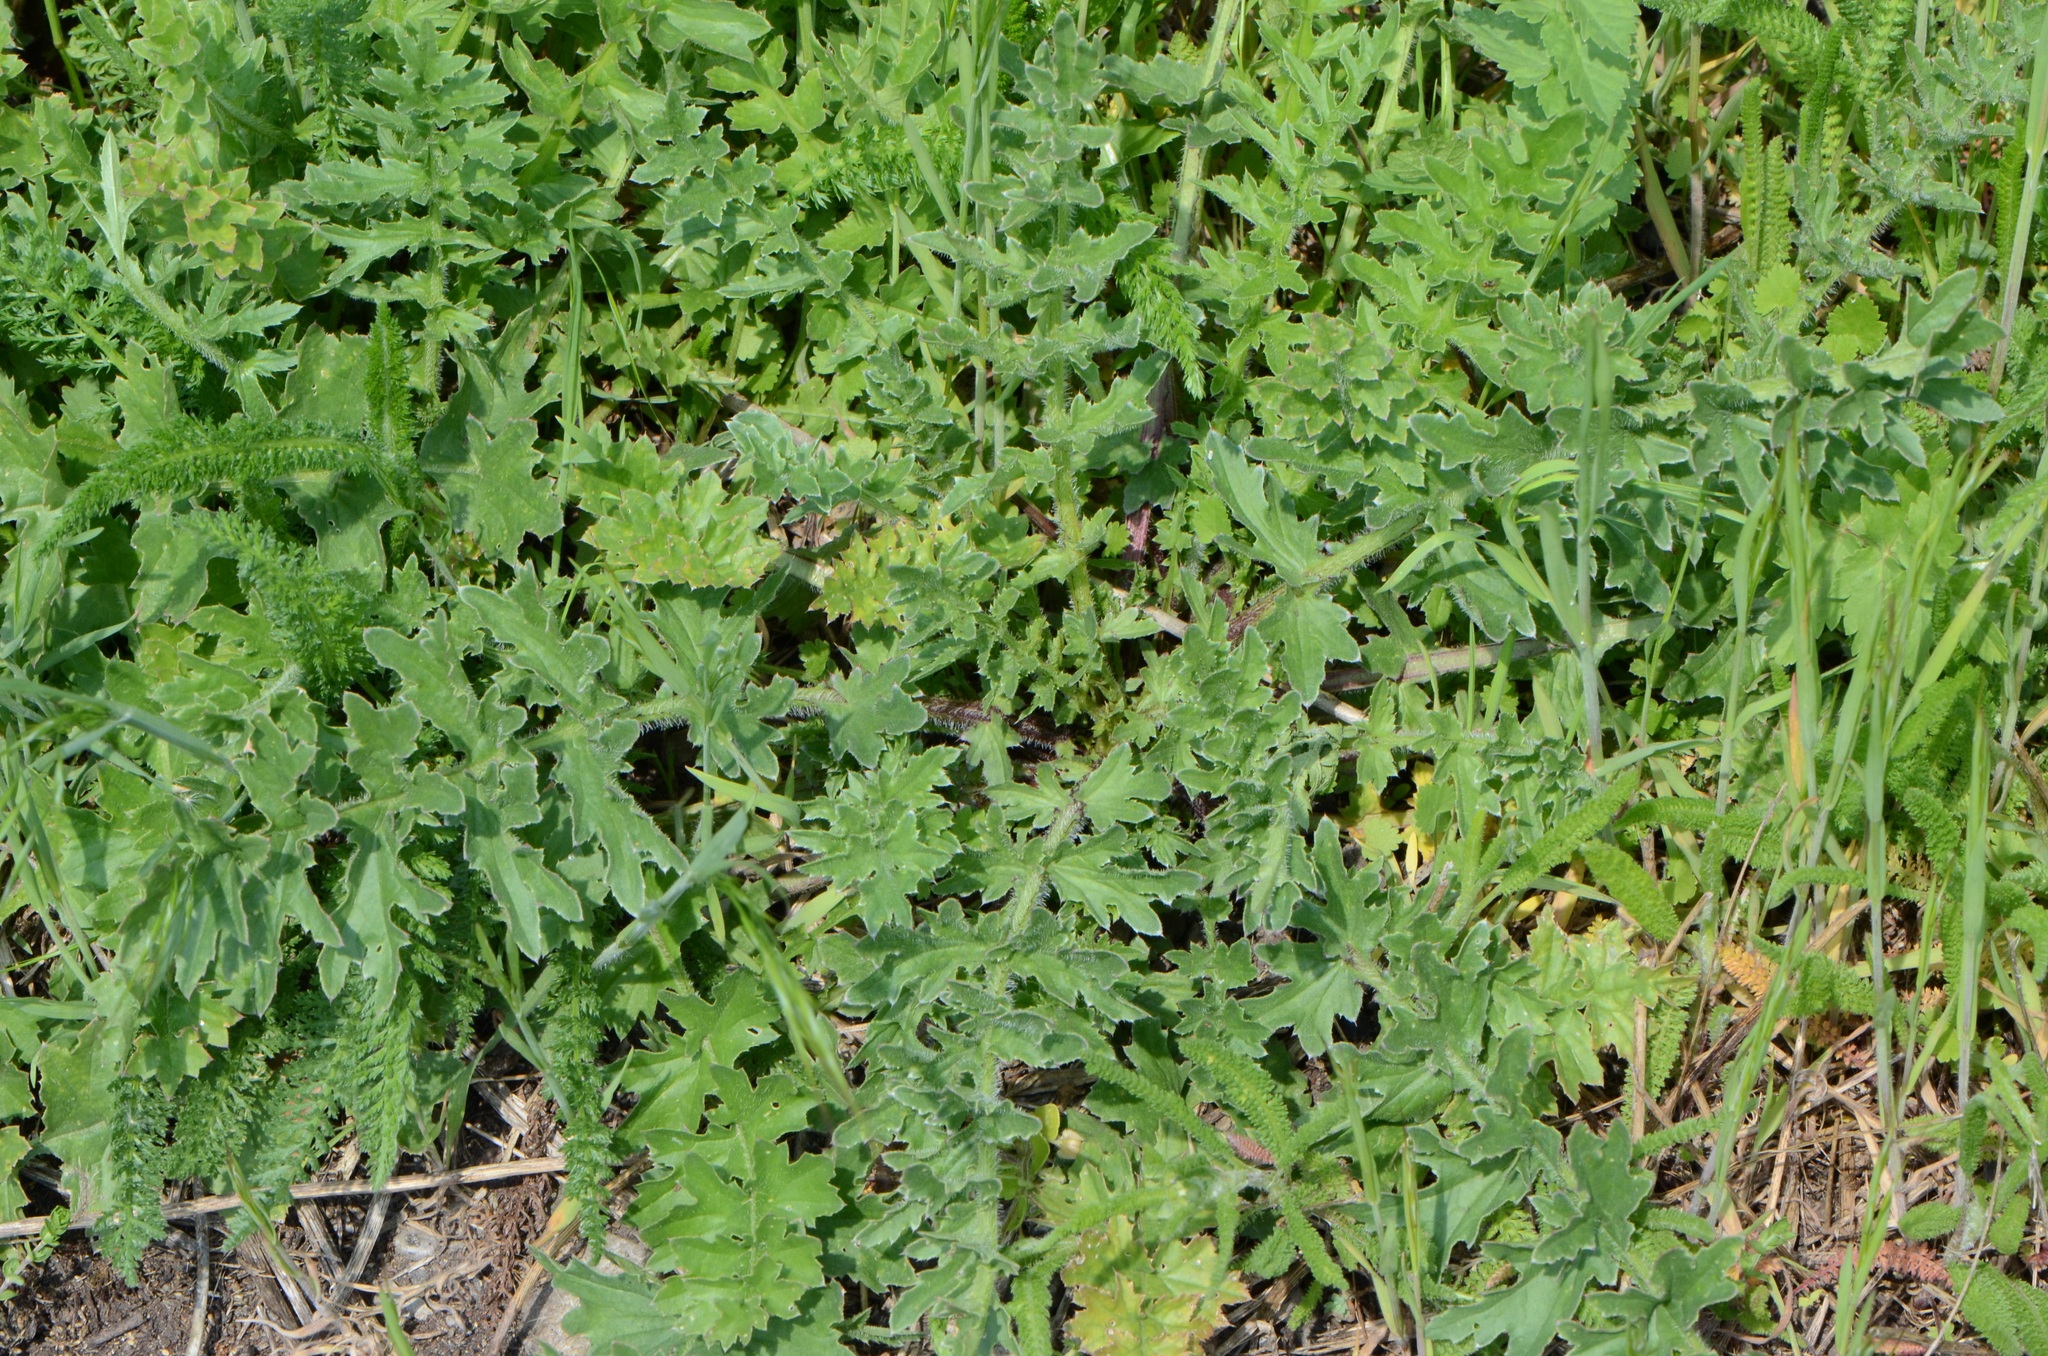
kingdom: Plantae
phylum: Tracheophyta
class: Magnoliopsida
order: Asterales
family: Asteraceae
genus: Carduus
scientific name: Carduus crispus
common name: Welted thistle
